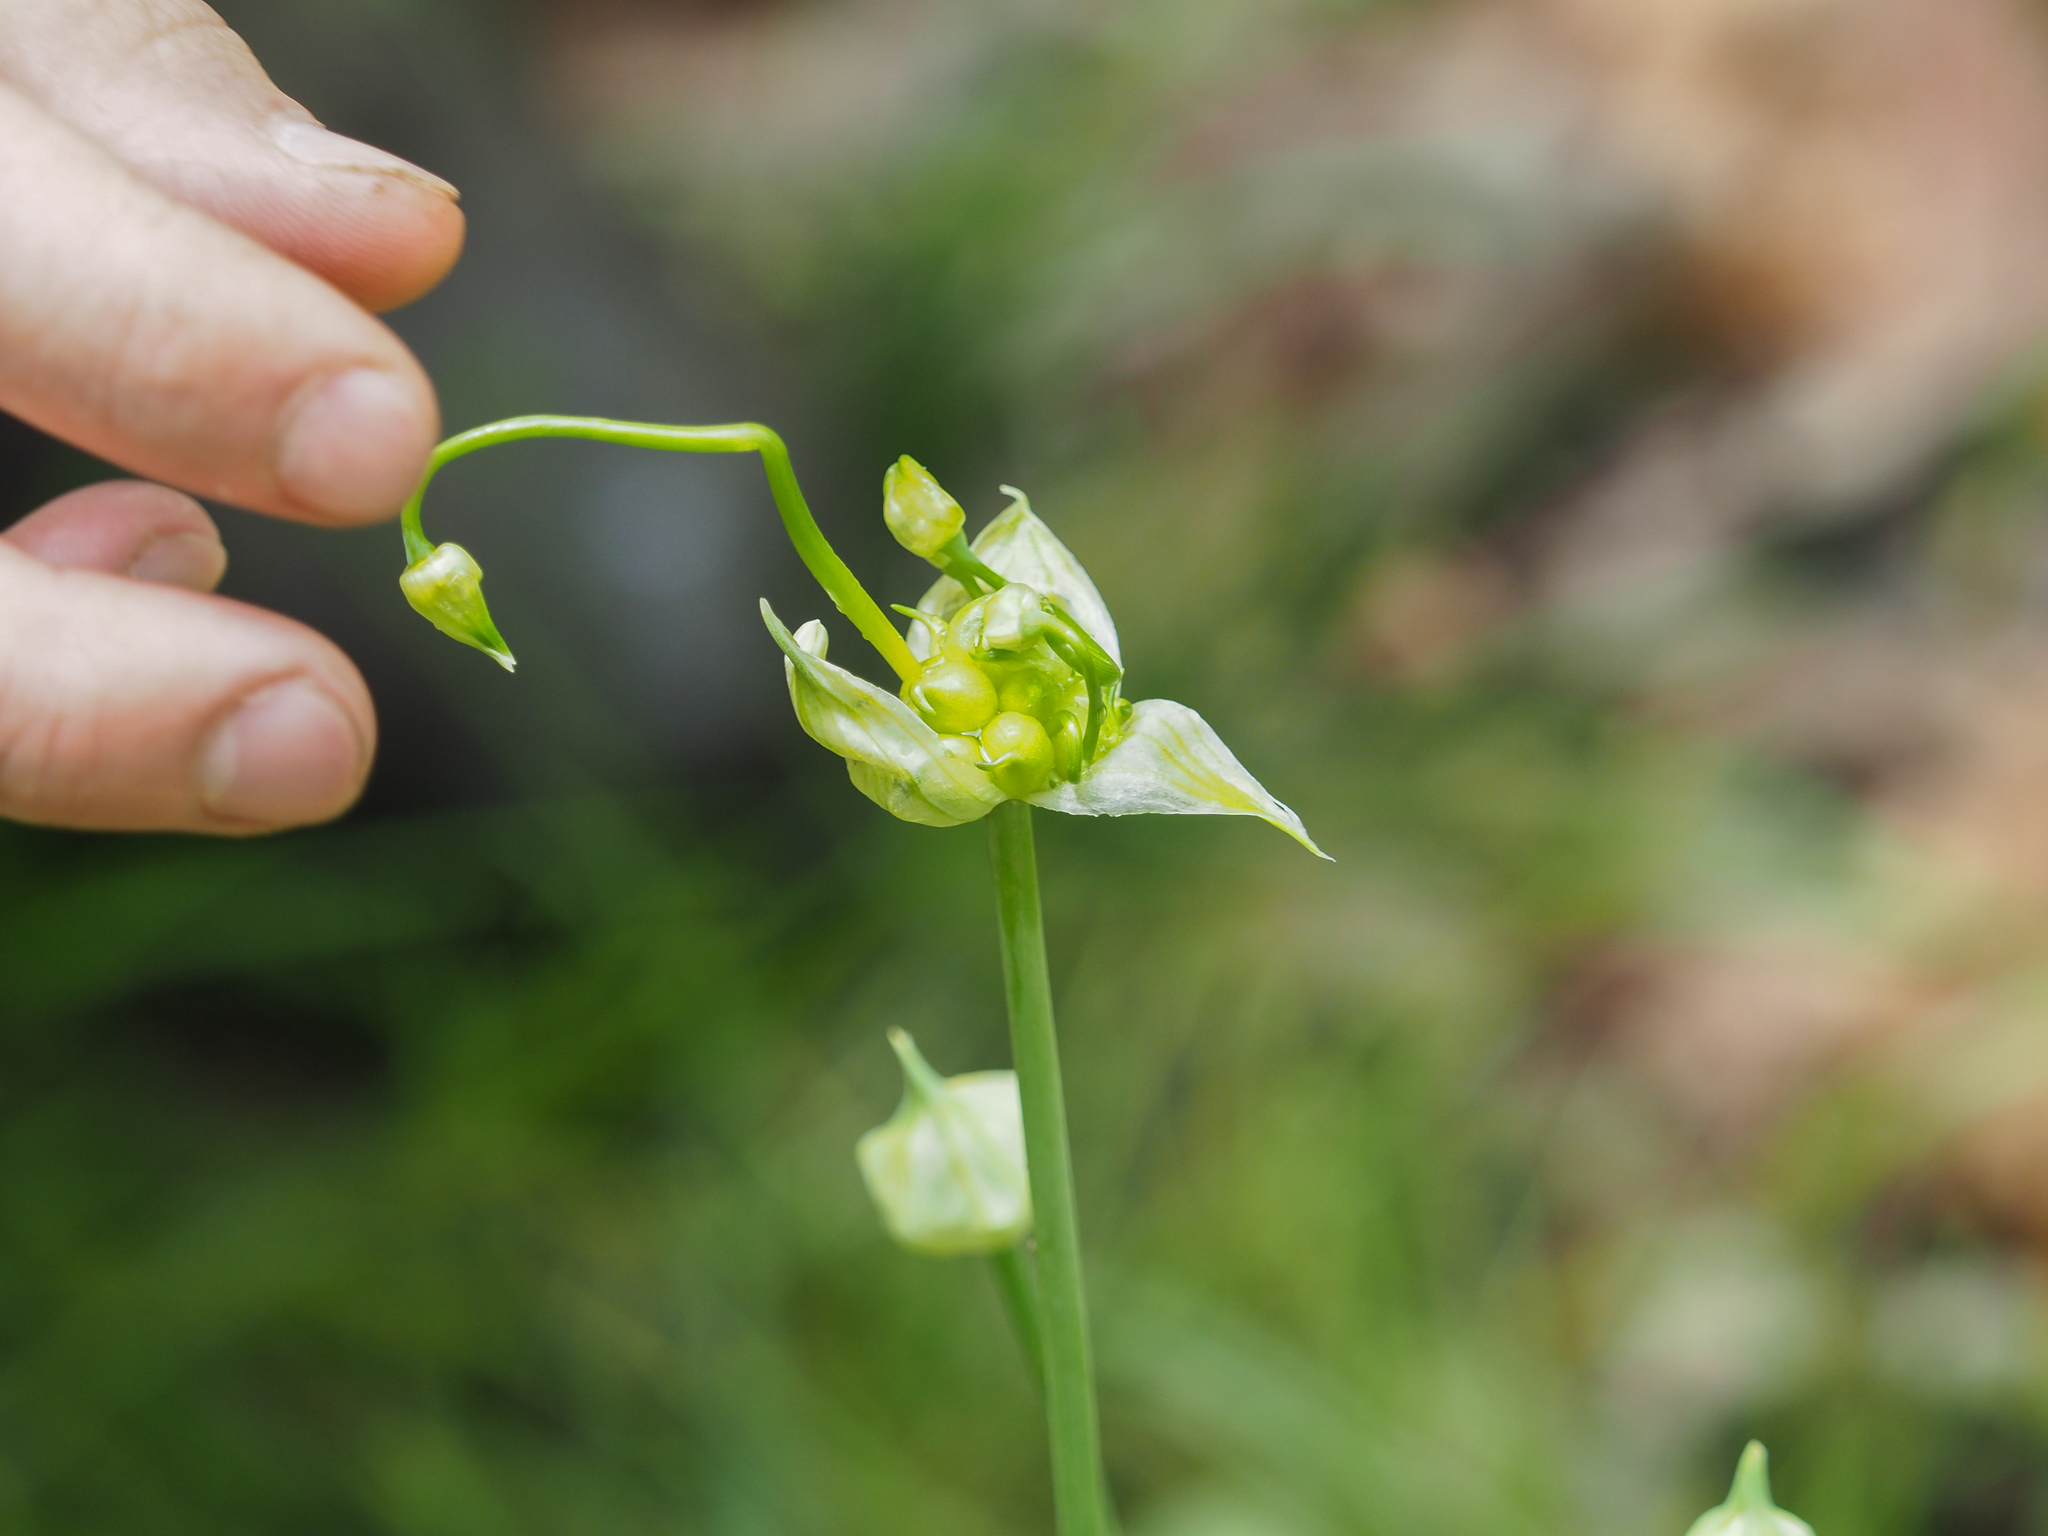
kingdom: Plantae
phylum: Tracheophyta
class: Liliopsida
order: Asparagales
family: Amaryllidaceae
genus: Allium
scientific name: Allium canadense
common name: Meadow garlic
